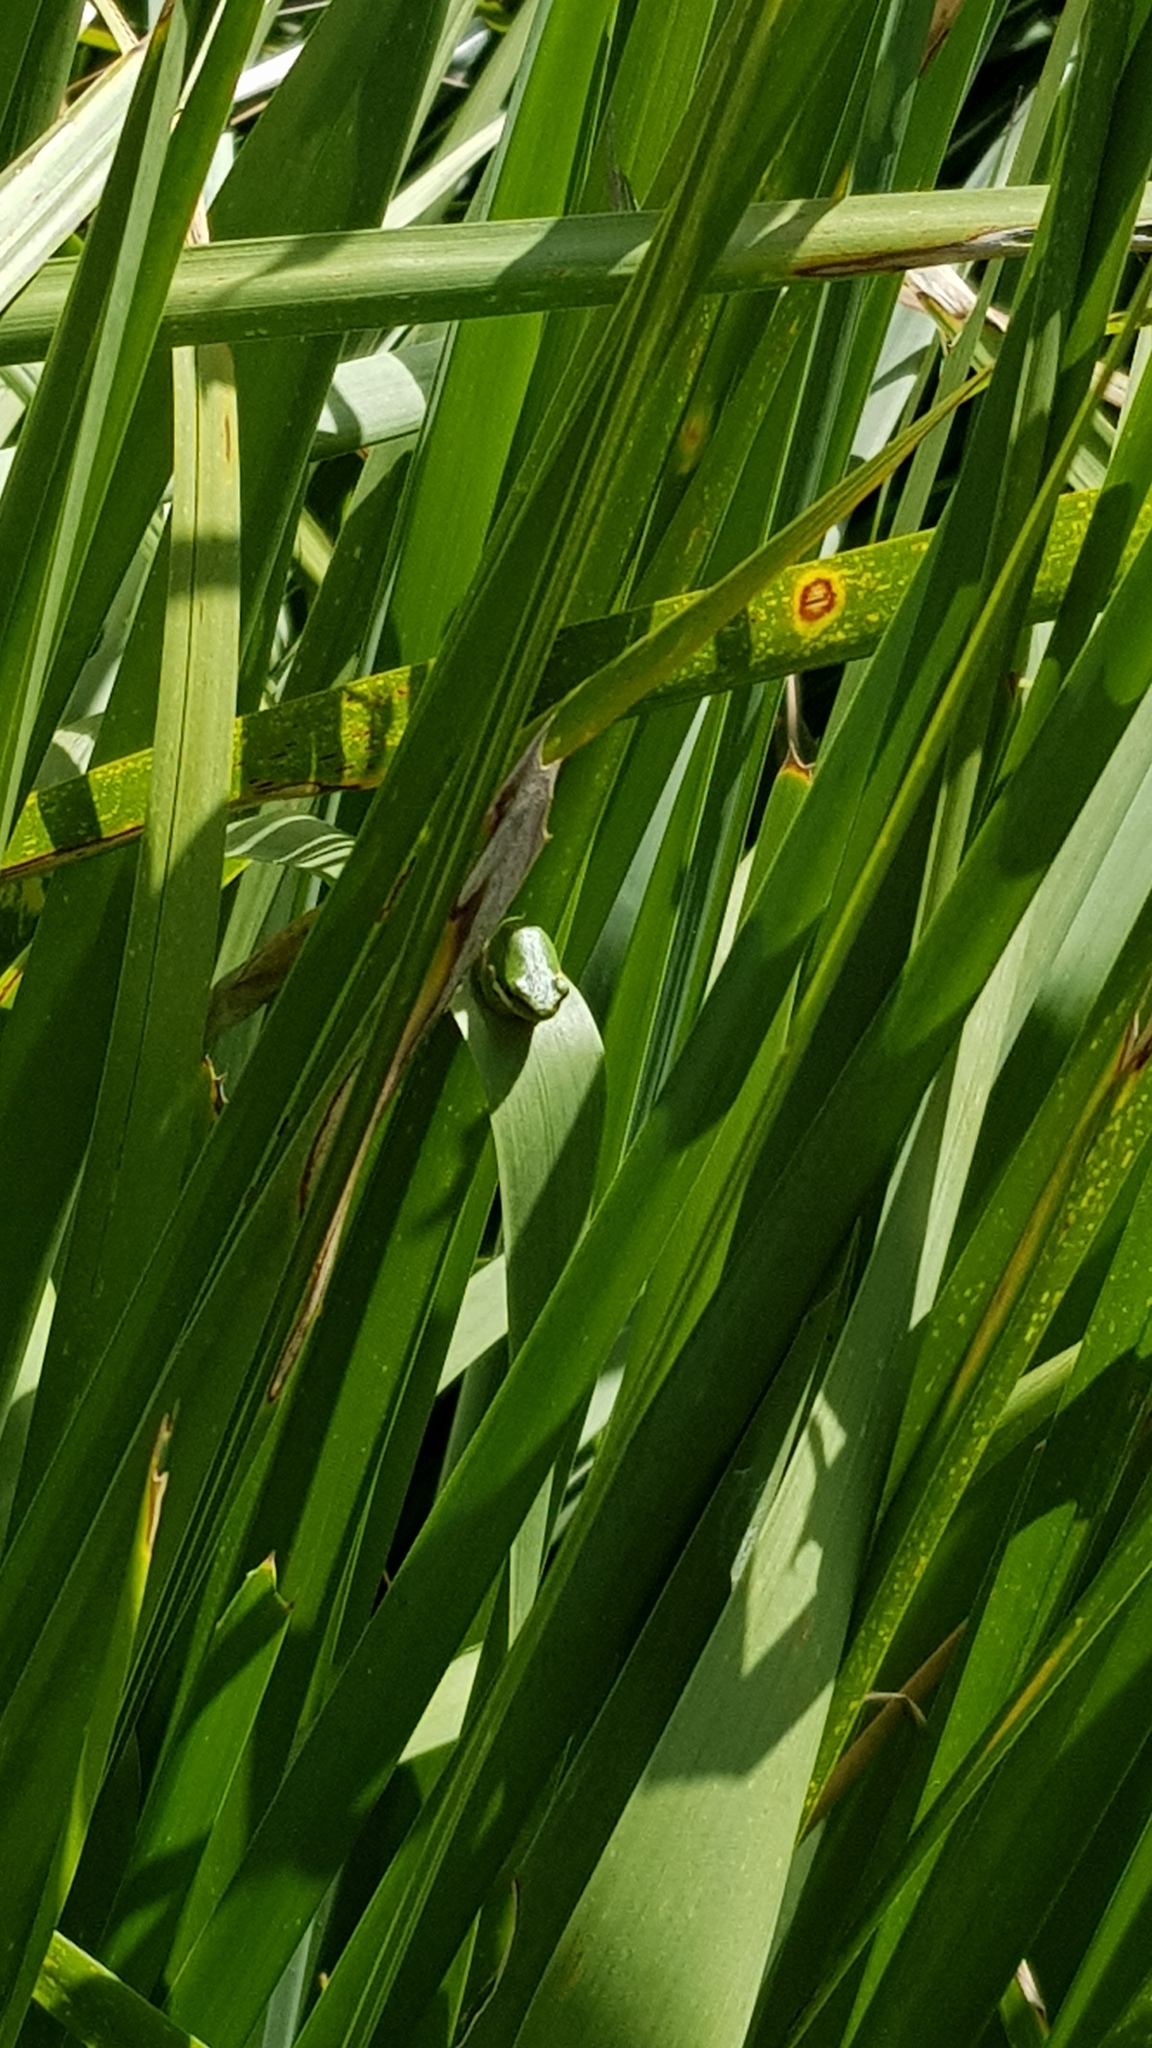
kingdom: Animalia
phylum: Chordata
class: Amphibia
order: Anura
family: Pelodryadidae
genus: Litoria
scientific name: Litoria fallax
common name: Eastern dwarf treefrog
